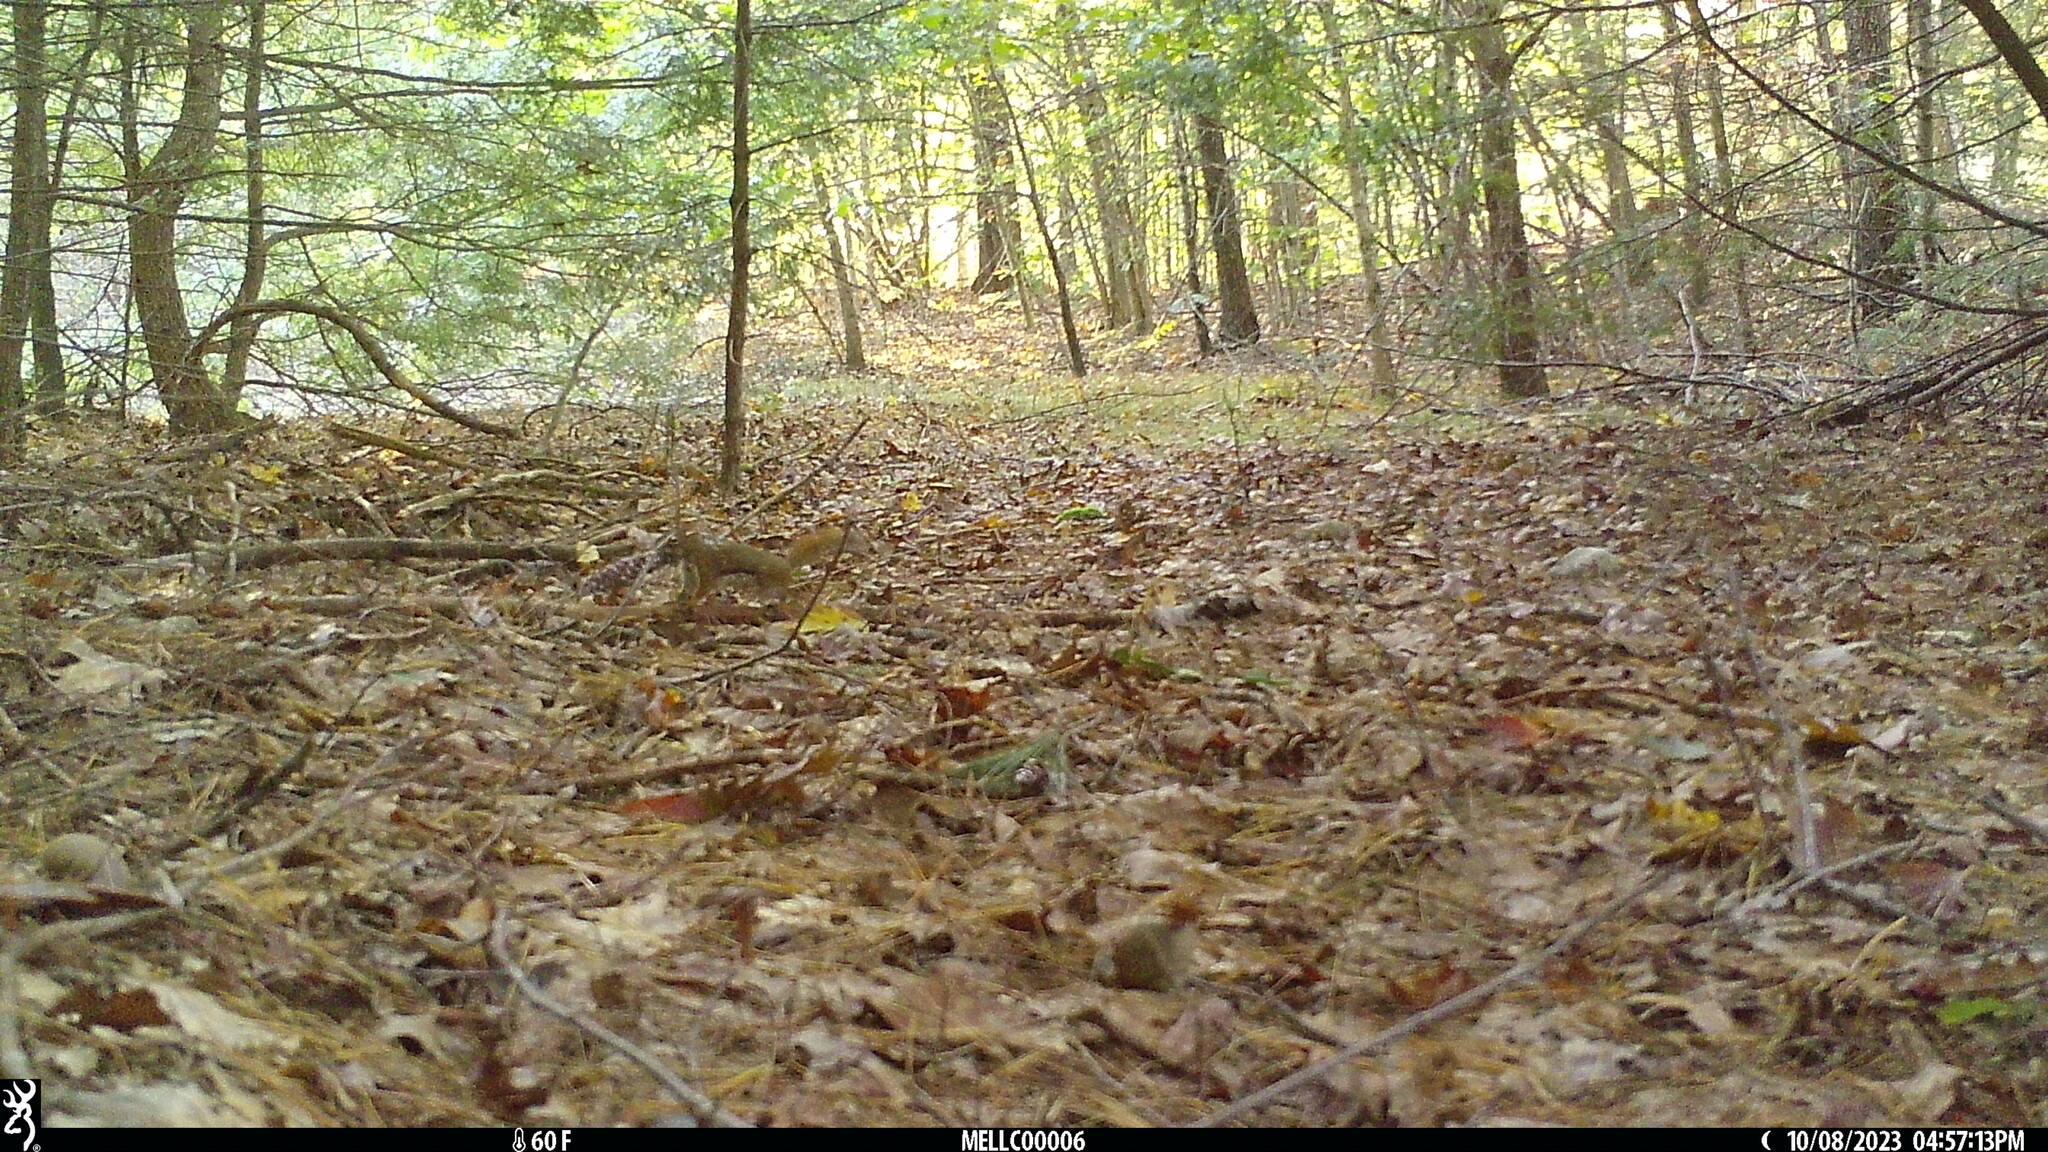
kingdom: Animalia
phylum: Chordata
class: Mammalia
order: Rodentia
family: Sciuridae
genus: Tamiasciurus
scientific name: Tamiasciurus hudsonicus
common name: Red squirrel
